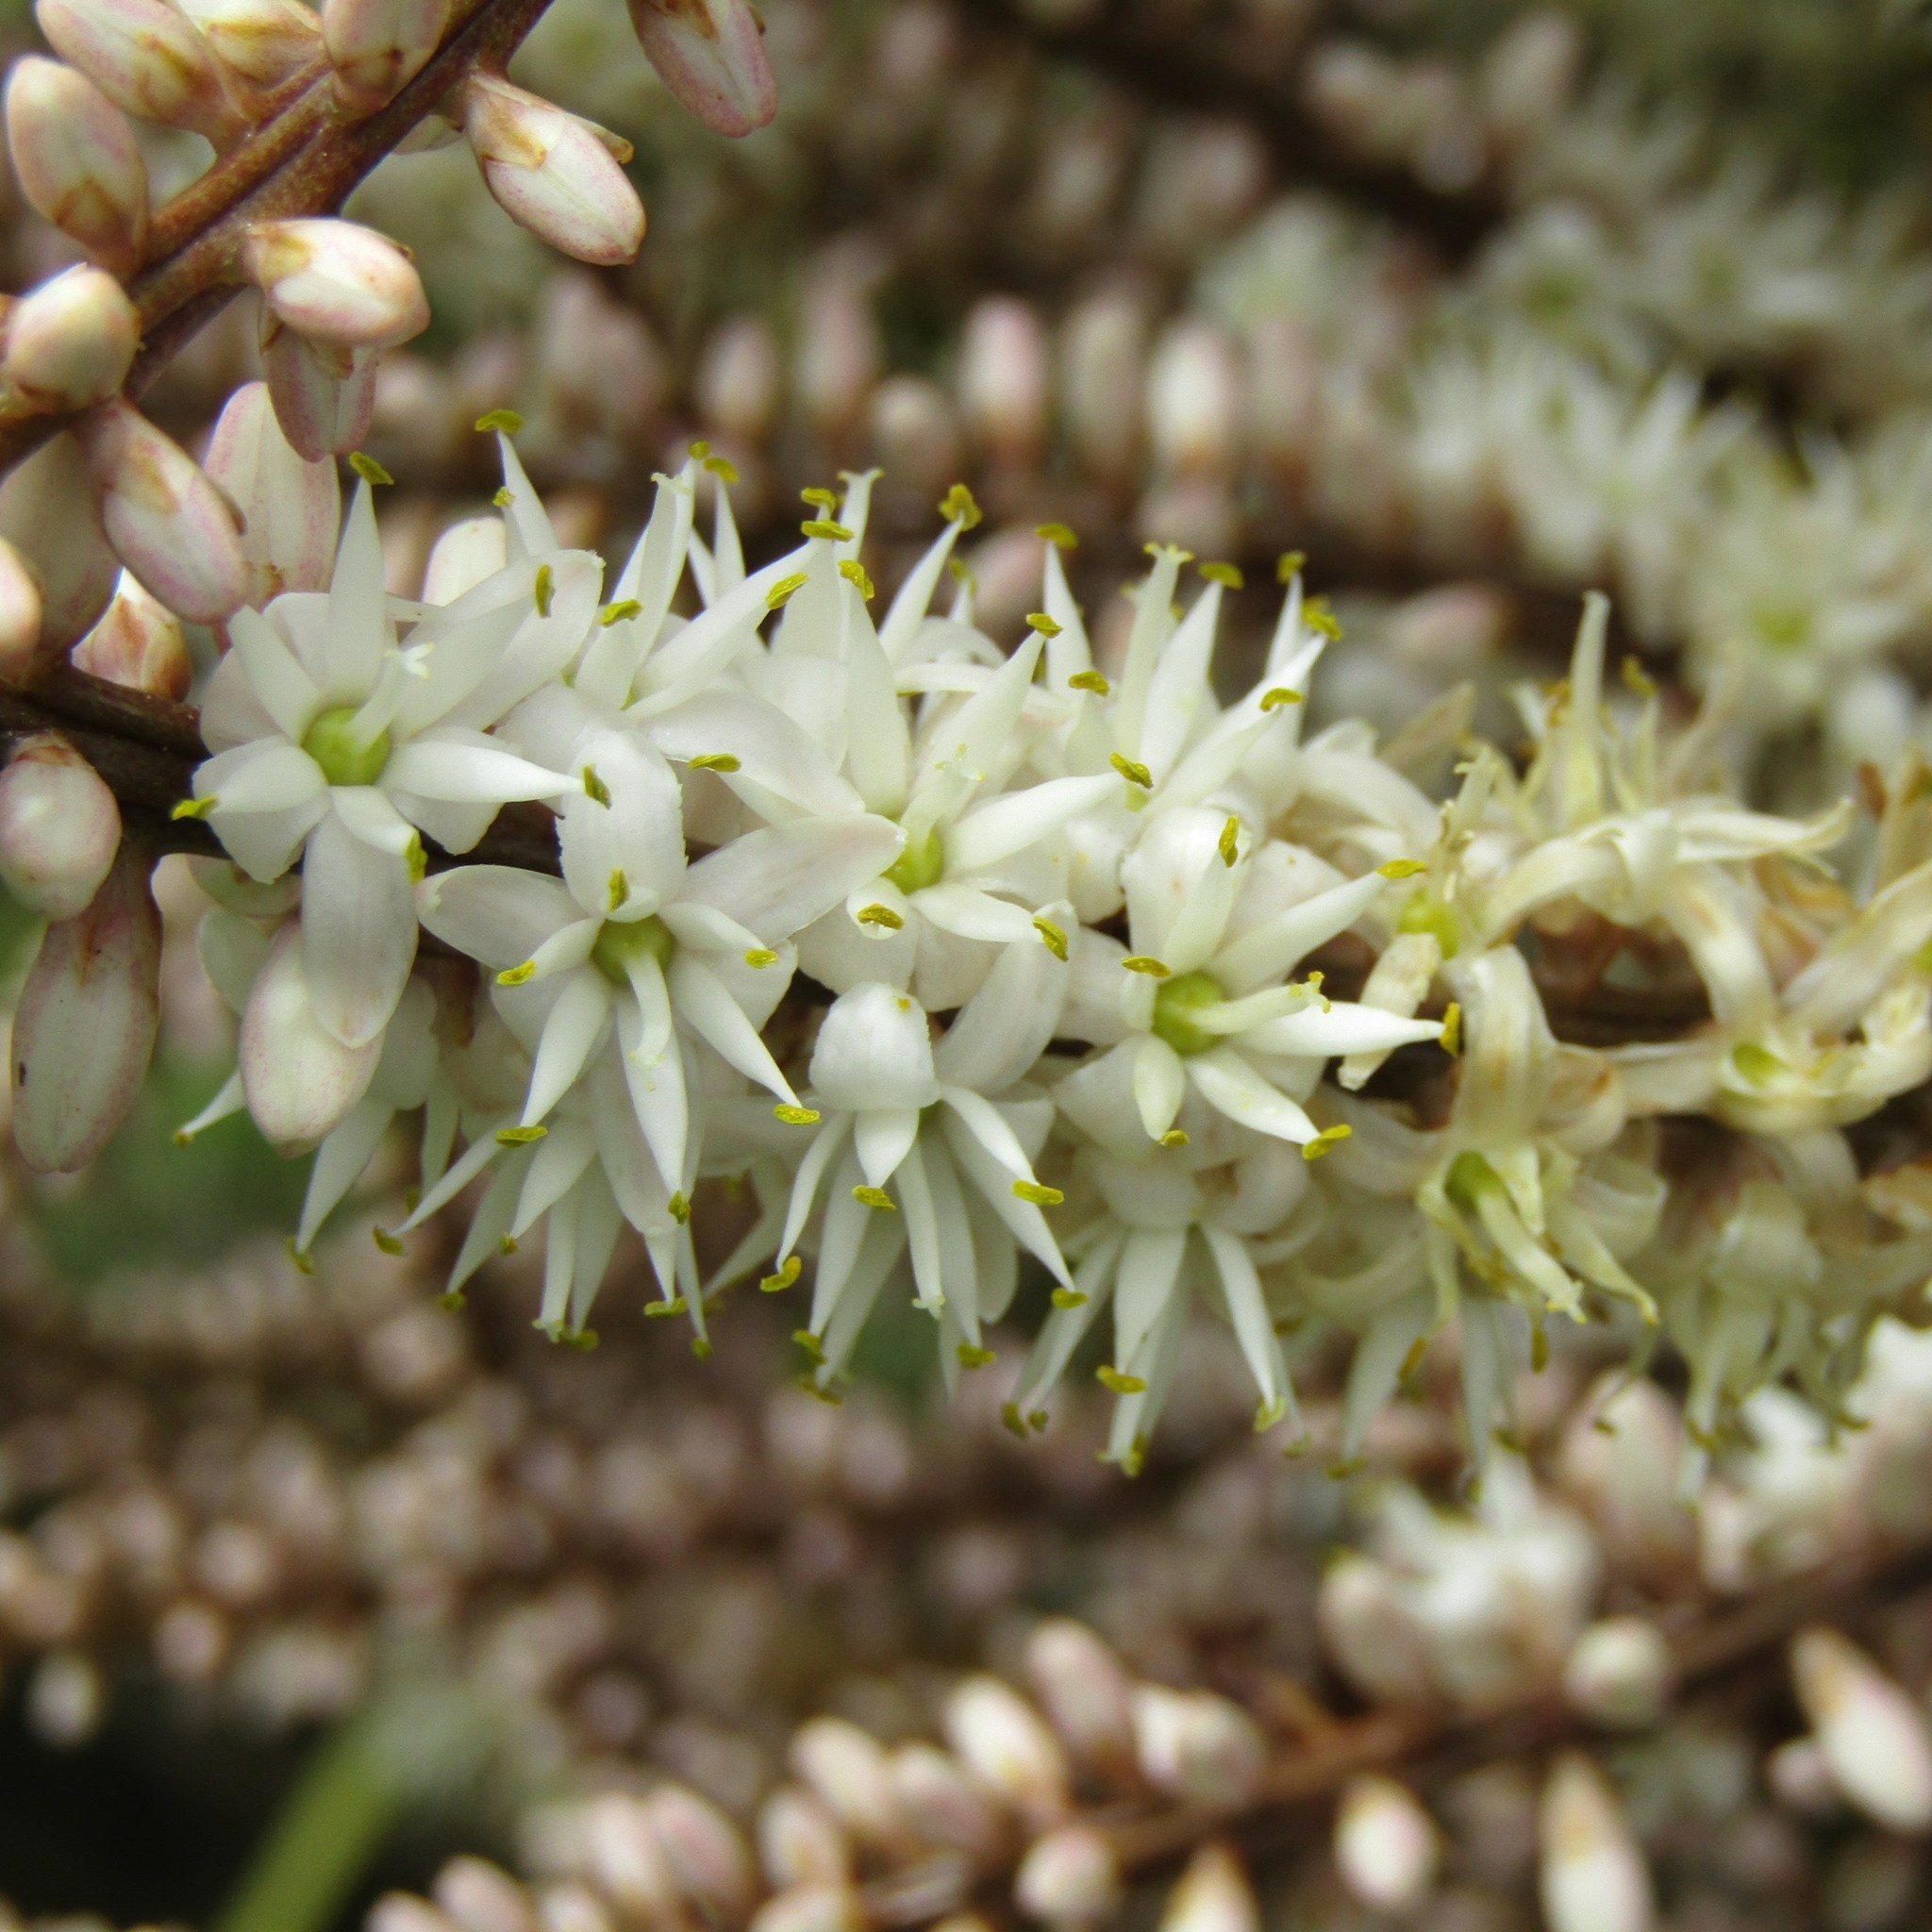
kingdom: Plantae
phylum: Tracheophyta
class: Liliopsida
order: Asparagales
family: Asparagaceae
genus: Cordyline
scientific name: Cordyline australis
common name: Cabbage-palm
